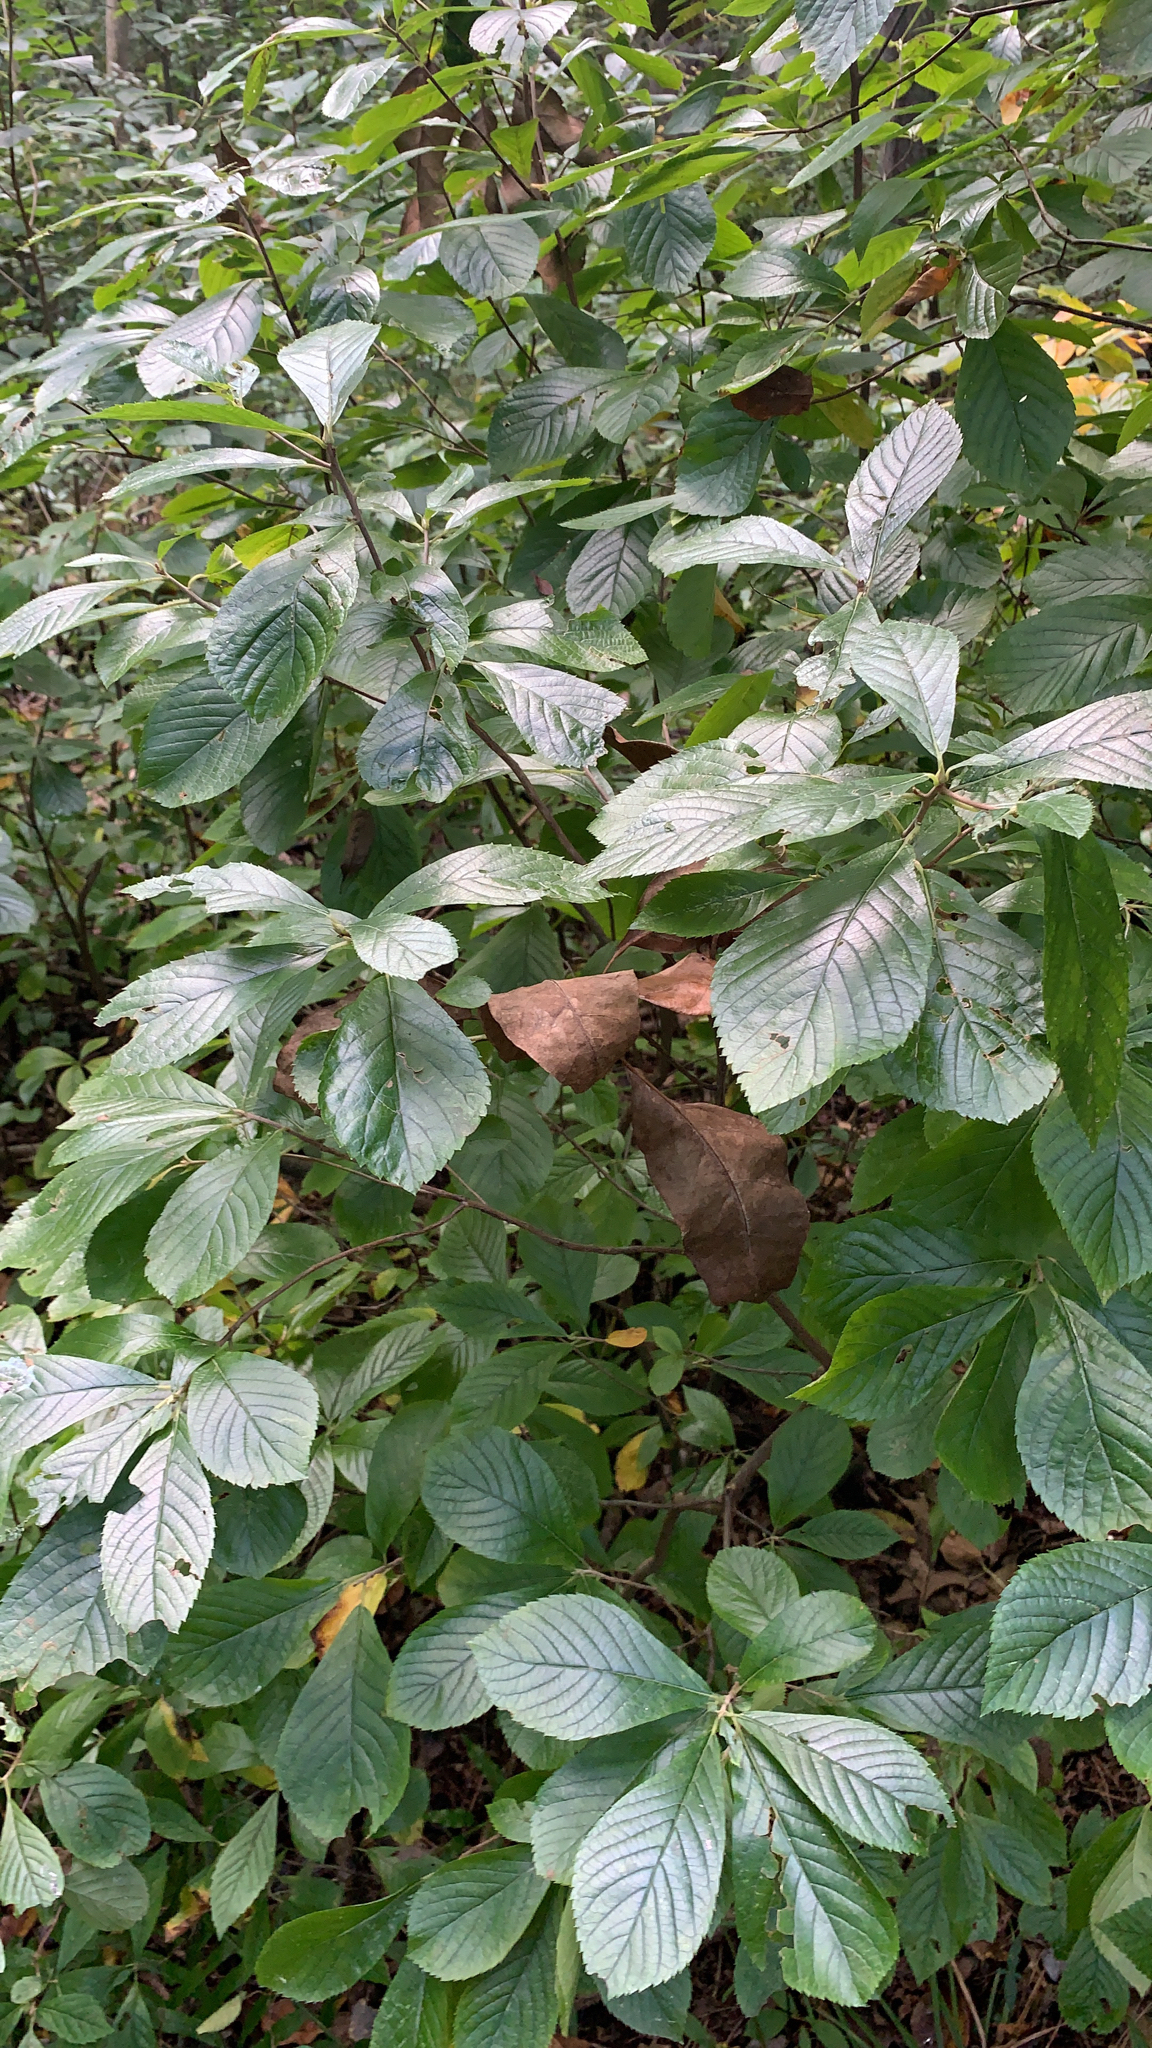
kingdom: Plantae
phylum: Tracheophyta
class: Magnoliopsida
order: Ericales
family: Clethraceae
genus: Clethra
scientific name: Clethra alnifolia
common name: Sweet pepperbush
